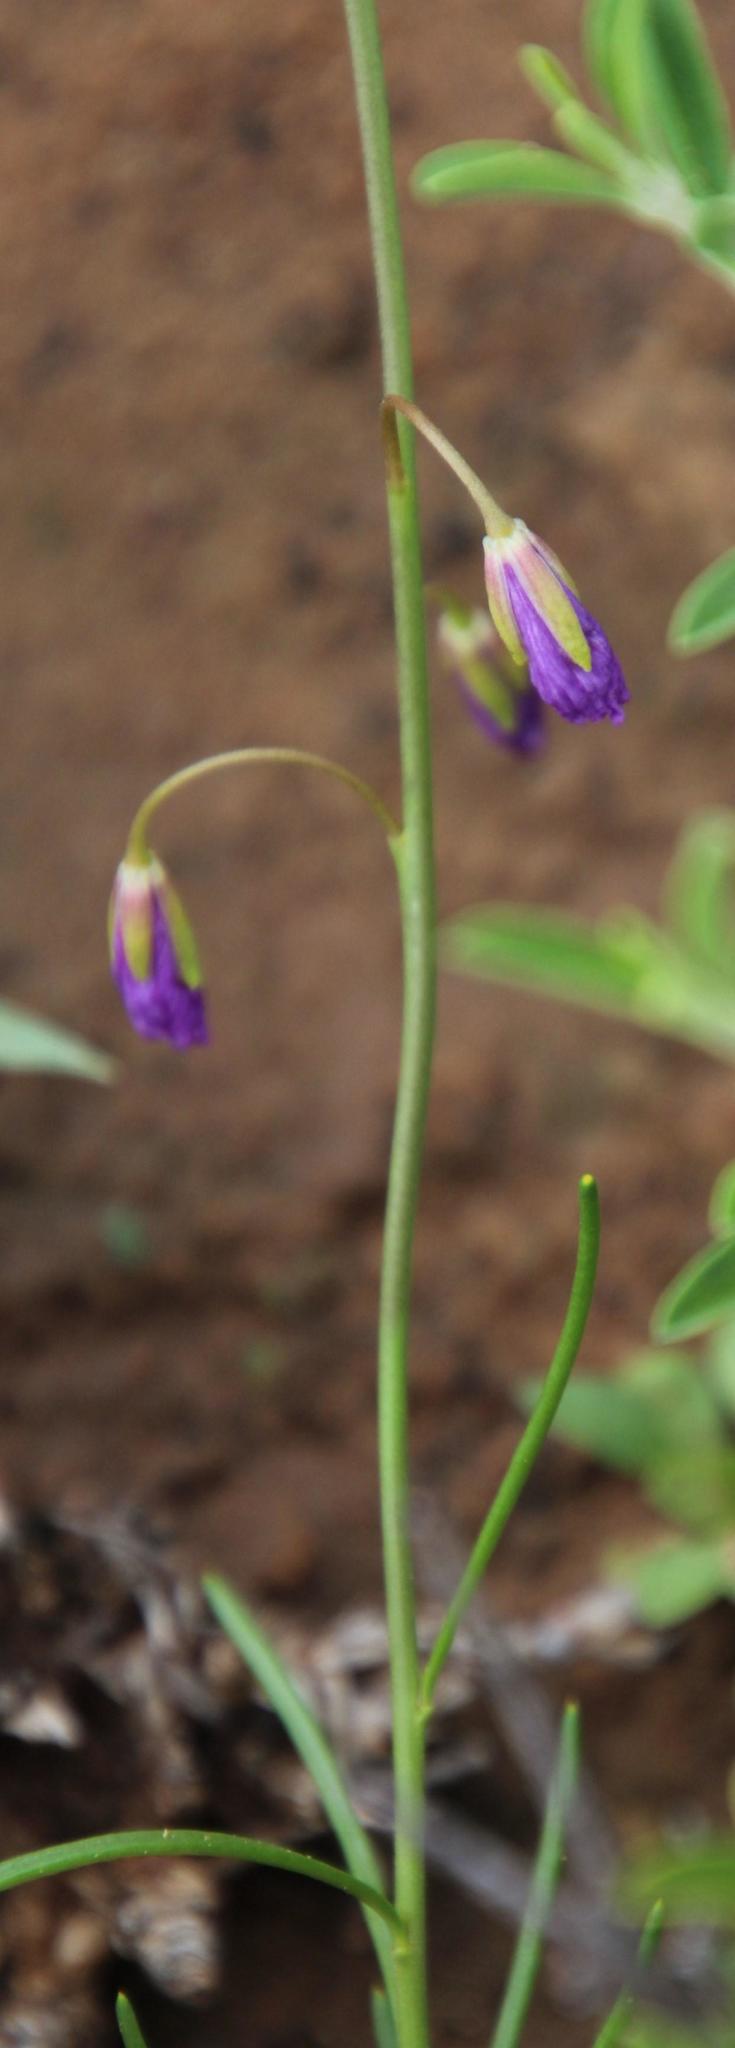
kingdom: Plantae
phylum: Tracheophyta
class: Magnoliopsida
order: Brassicales
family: Brassicaceae
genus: Heliophila
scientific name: Heliophila suavissima
